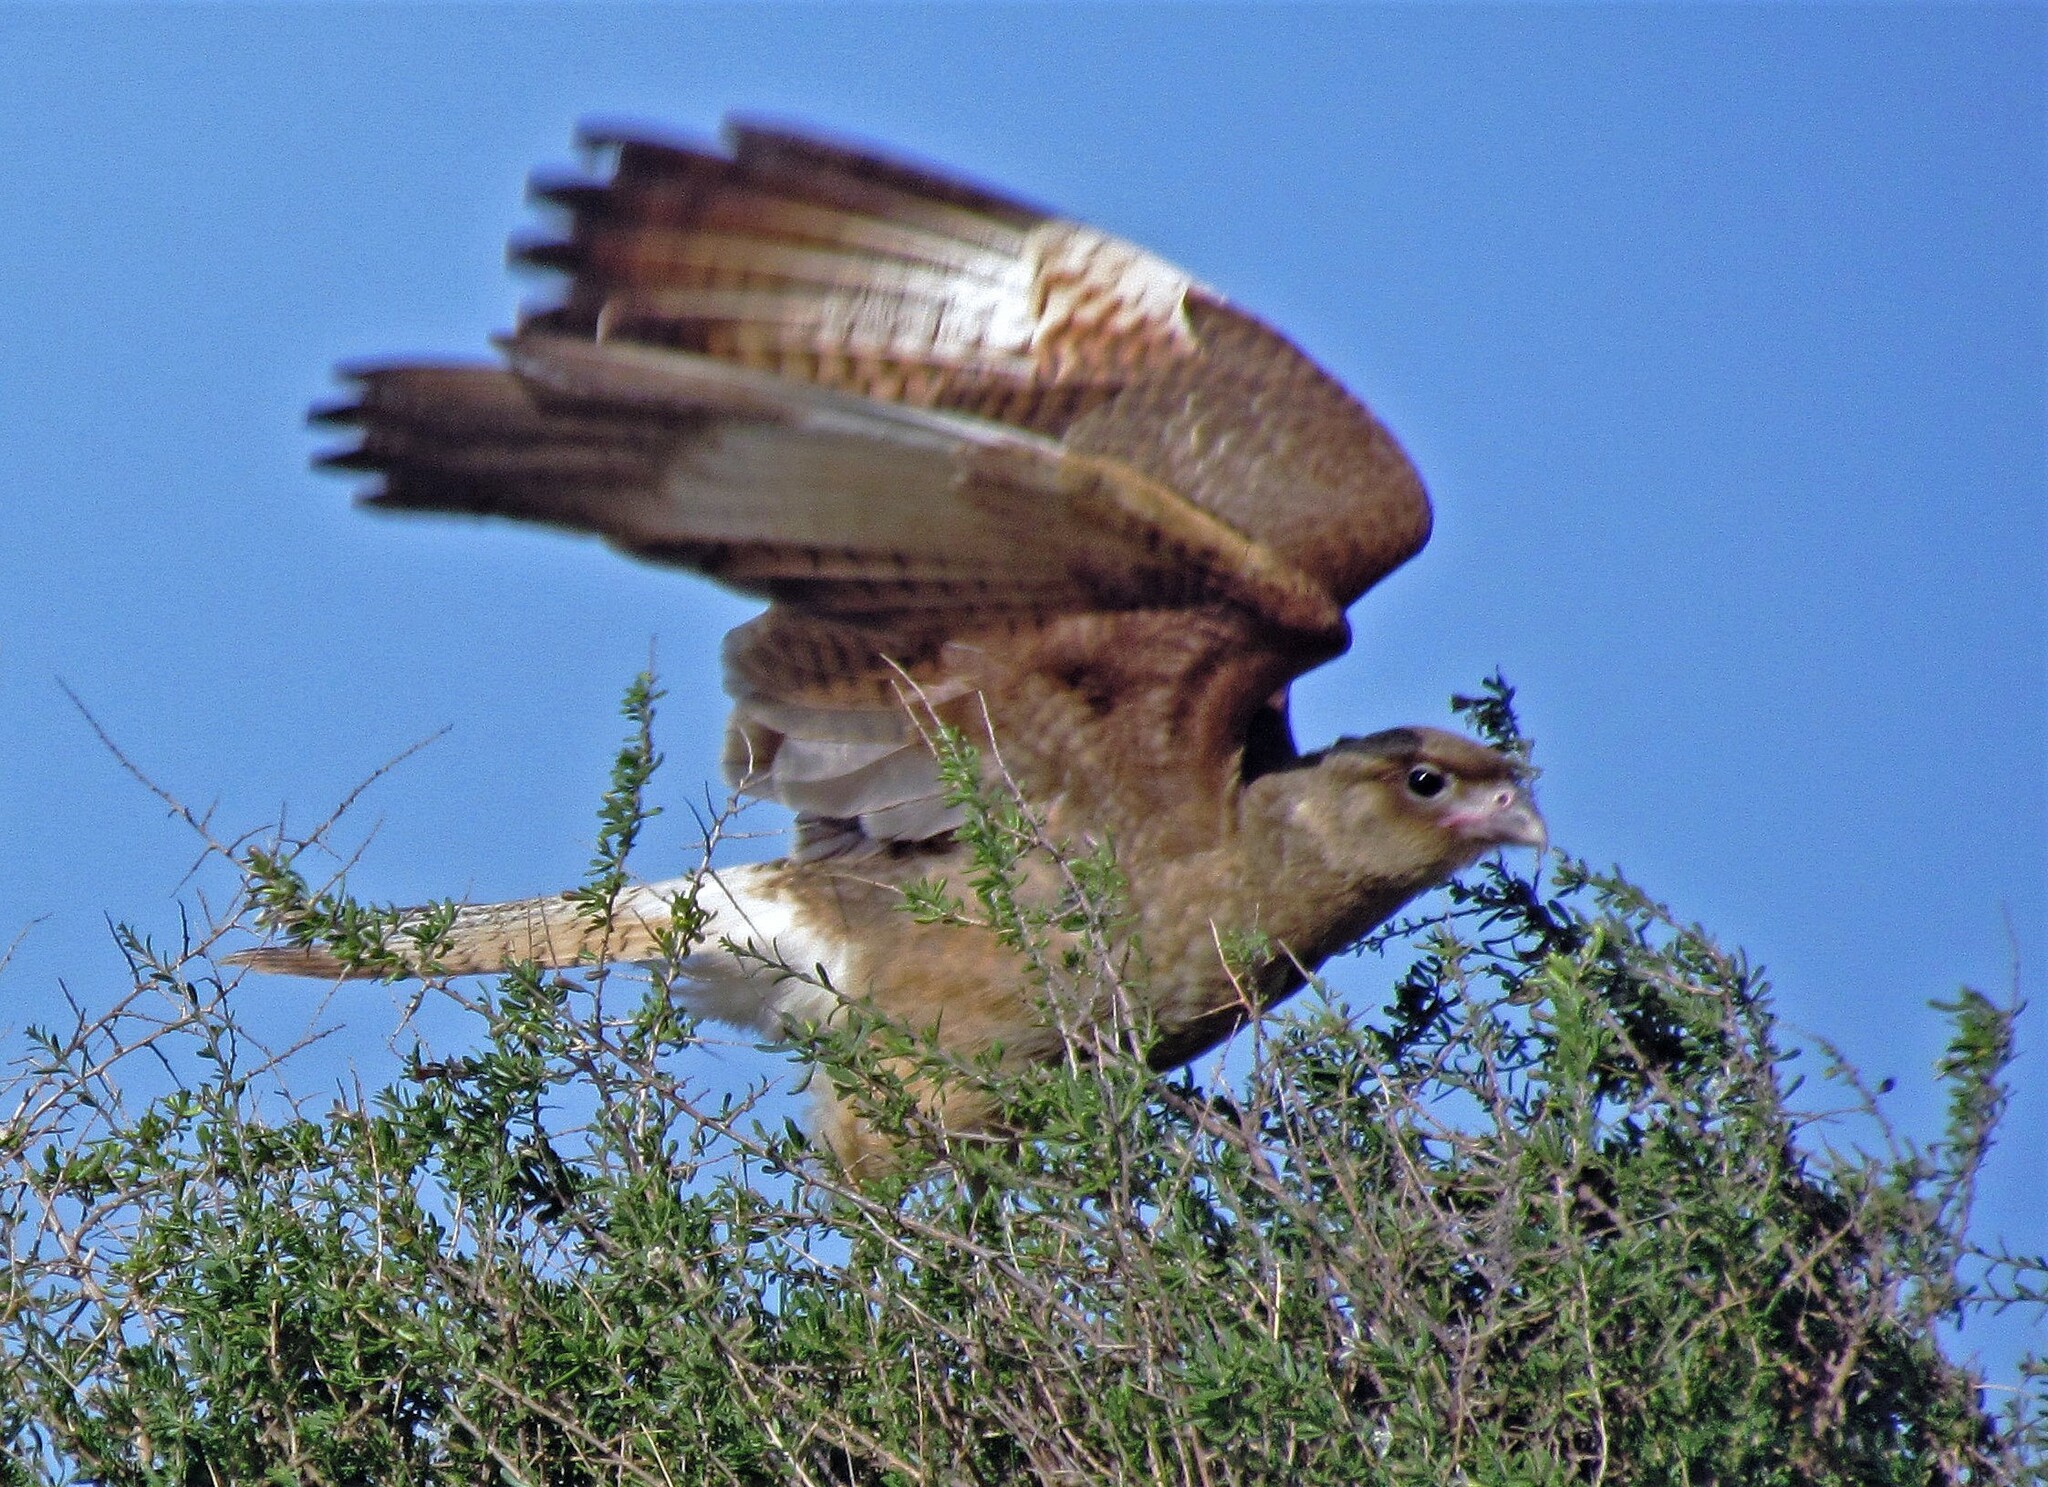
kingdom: Animalia
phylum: Chordata
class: Aves
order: Falconiformes
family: Falconidae
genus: Daptrius
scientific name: Daptrius
